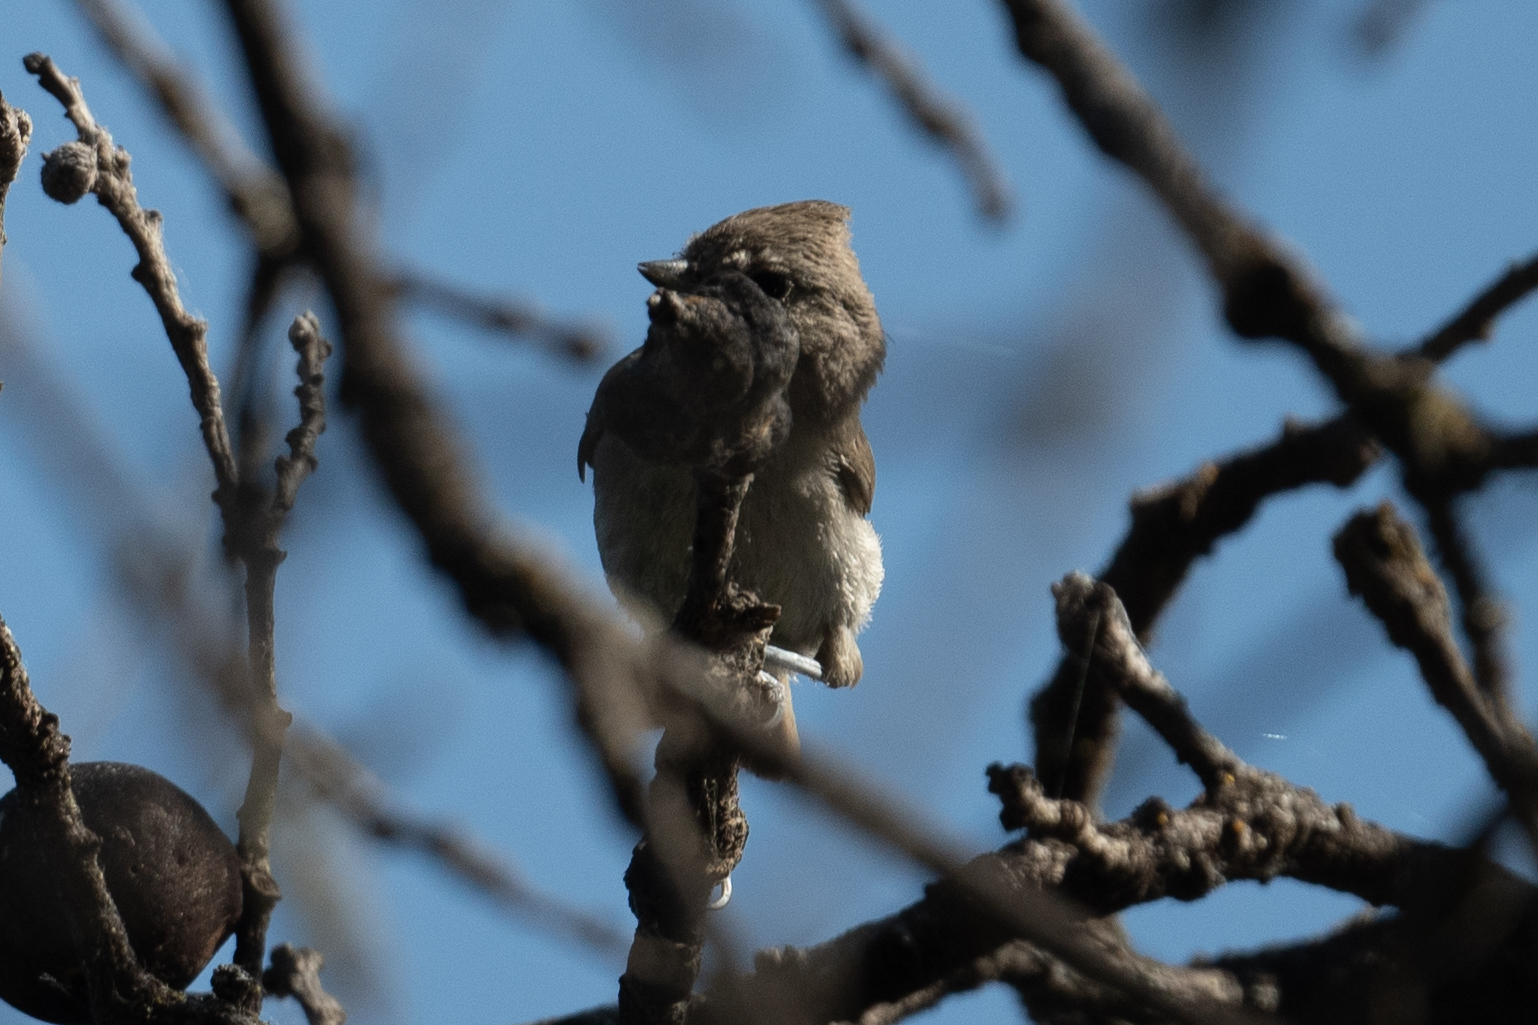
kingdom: Animalia
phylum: Chordata
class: Aves
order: Passeriformes
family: Paridae
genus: Baeolophus
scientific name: Baeolophus inornatus
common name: Oak titmouse
